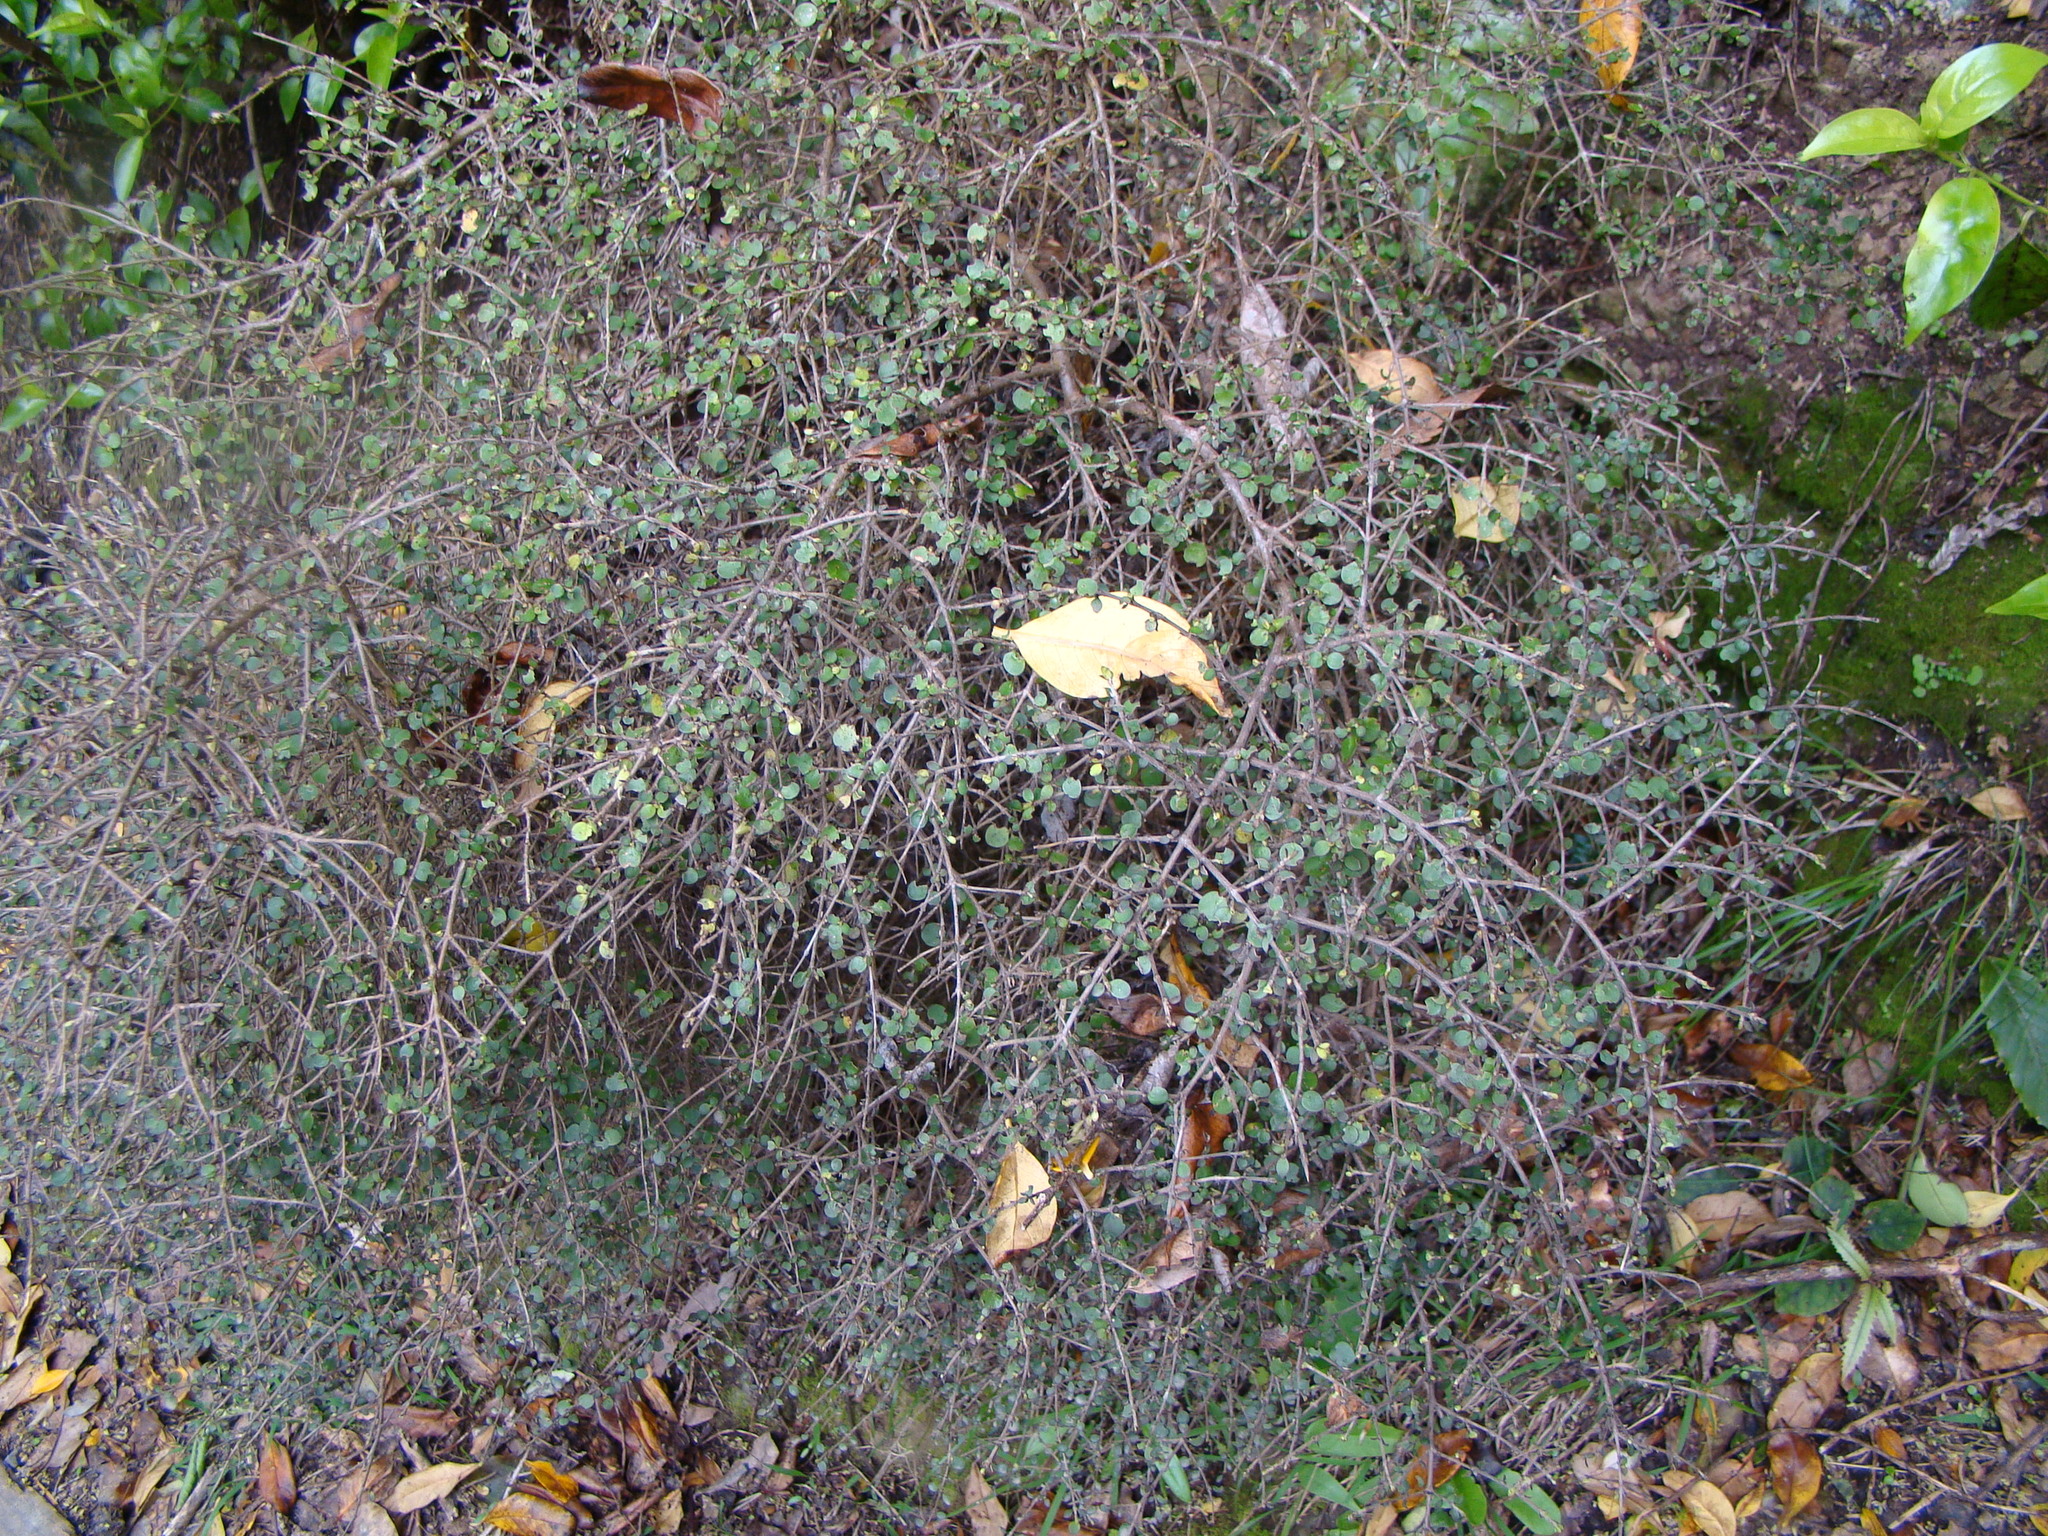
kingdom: Plantae
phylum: Tracheophyta
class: Magnoliopsida
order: Gentianales
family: Rubiaceae
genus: Coprosma
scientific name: Coprosma rhamnoides
